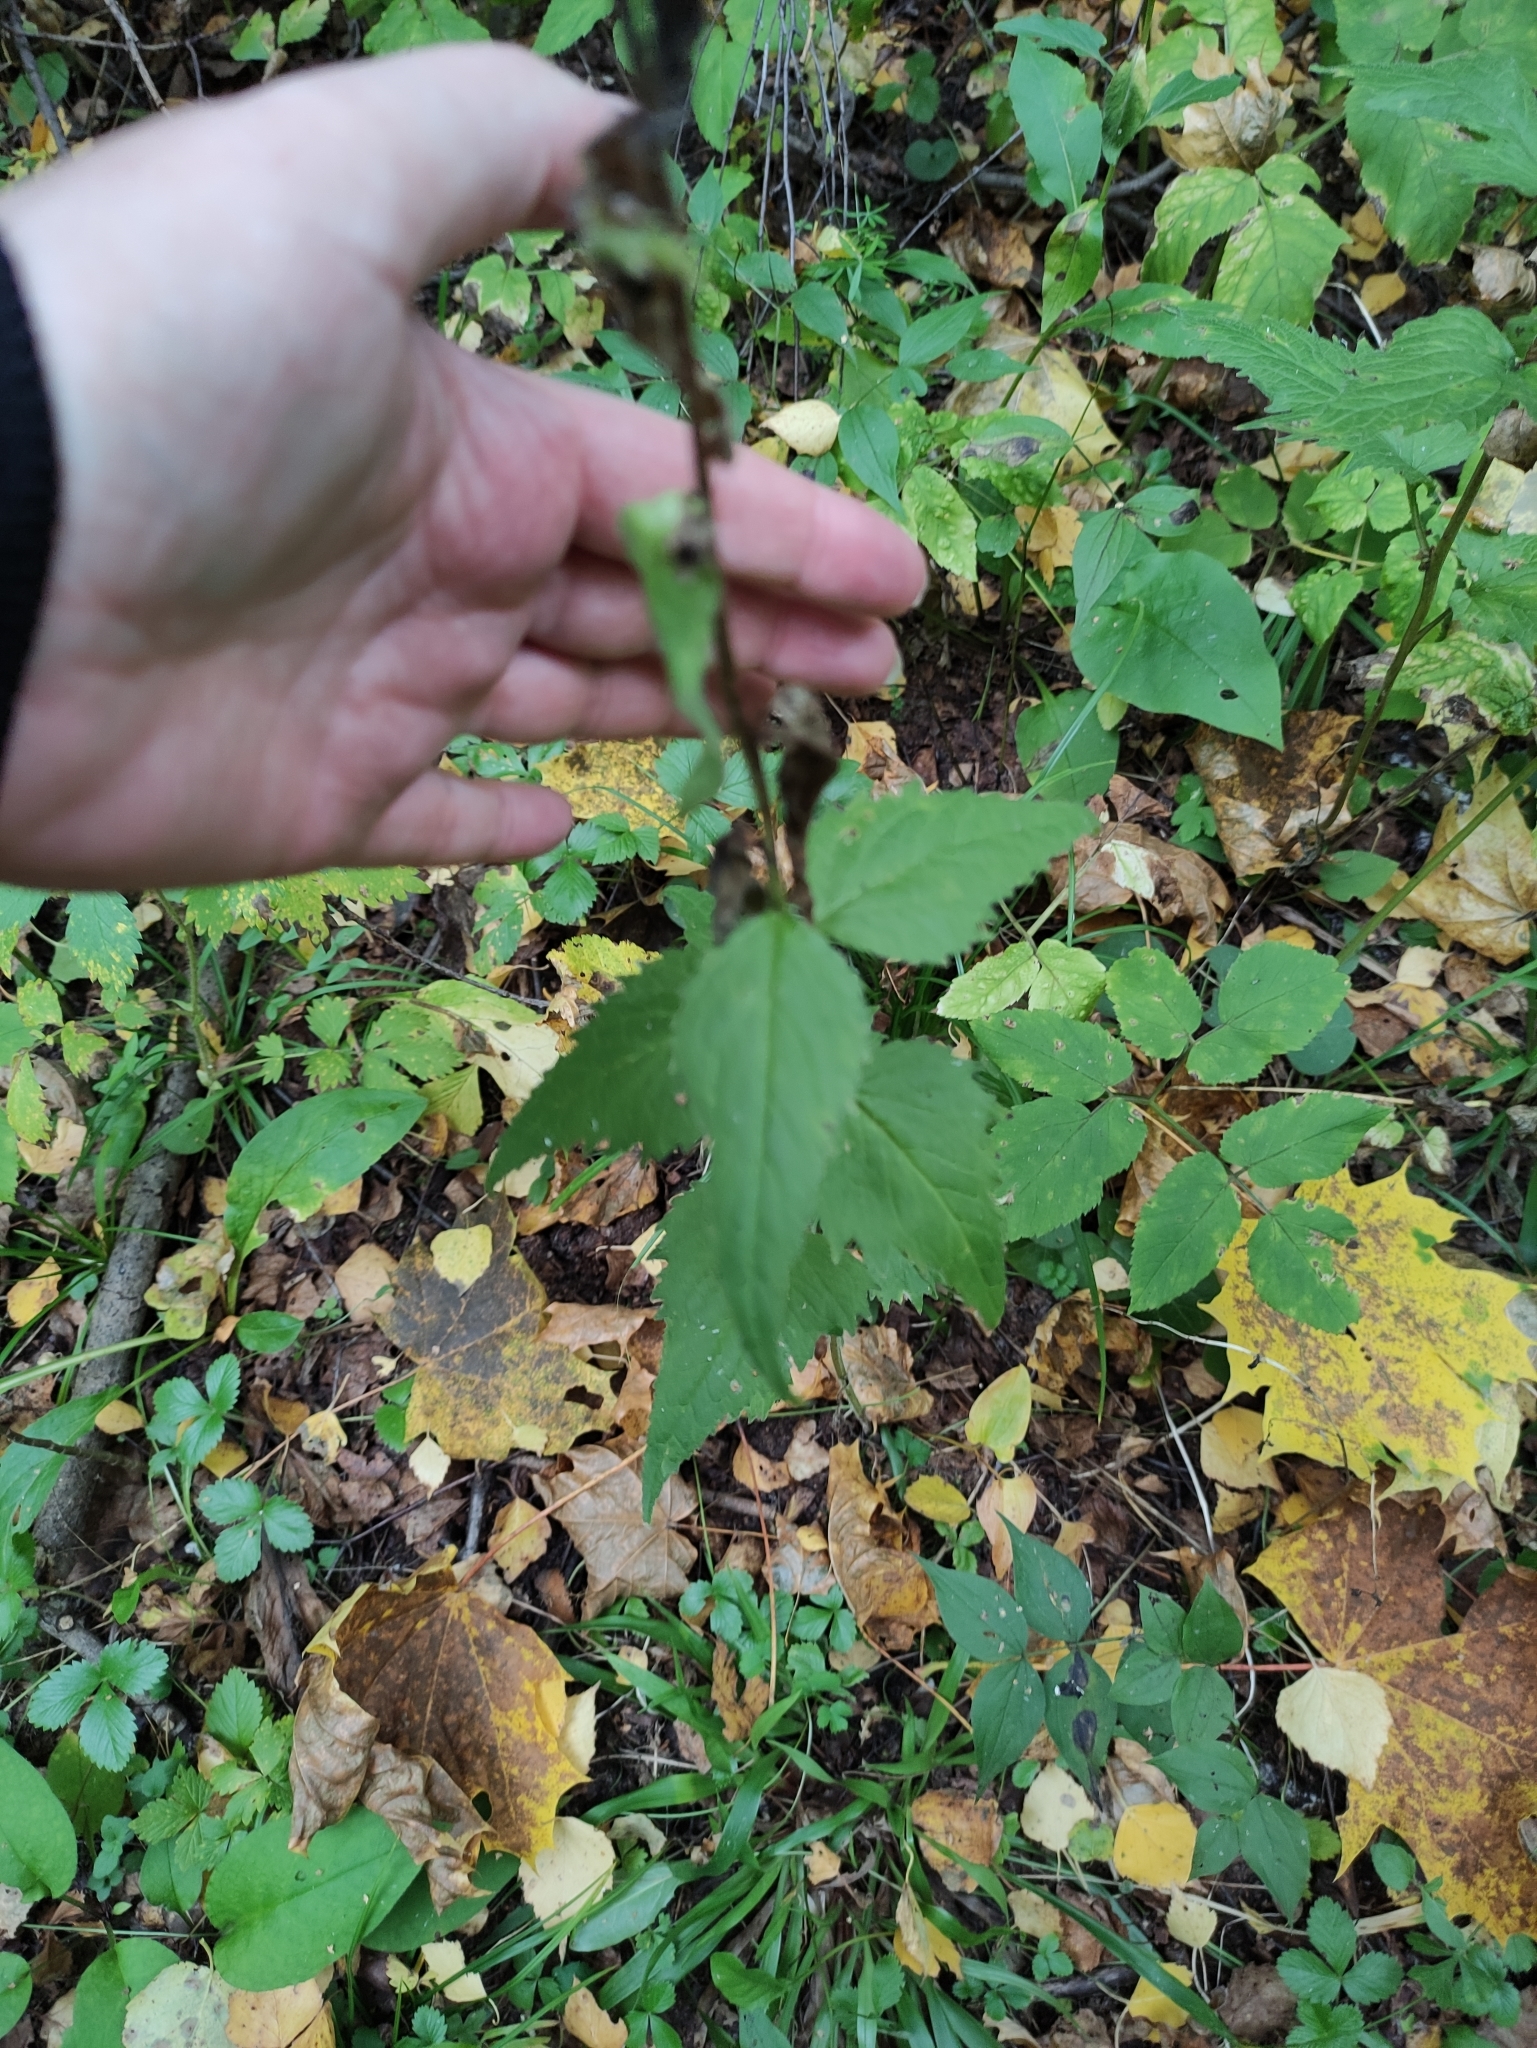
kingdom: Plantae
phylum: Tracheophyta
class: Magnoliopsida
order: Asterales
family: Campanulaceae
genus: Campanula
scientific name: Campanula trachelium
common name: Nettle-leaved bellflower
